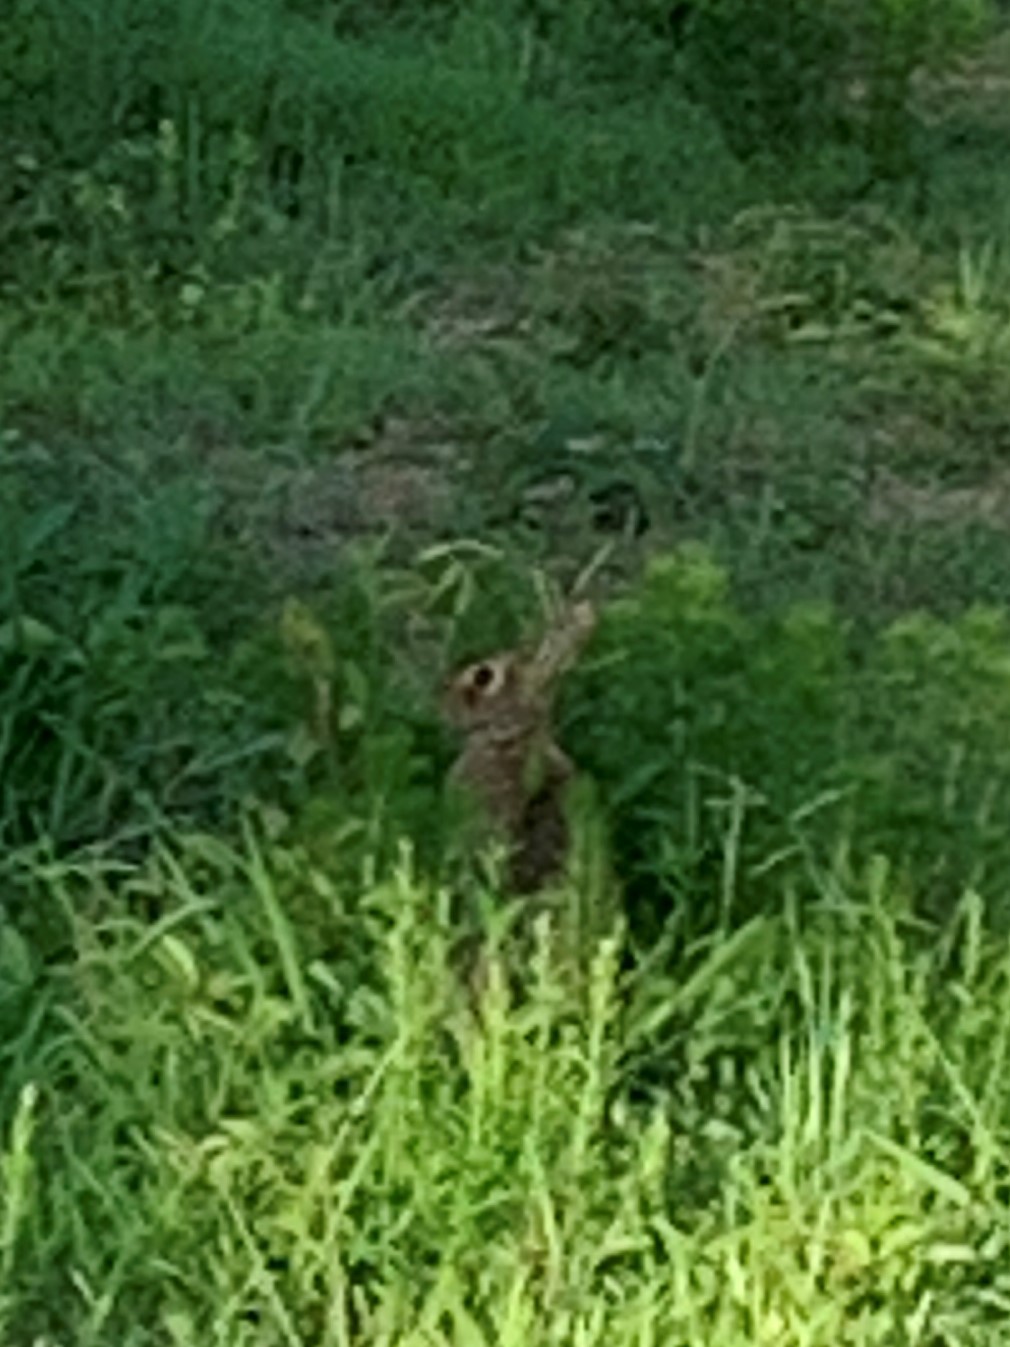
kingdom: Animalia
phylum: Chordata
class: Mammalia
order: Lagomorpha
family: Leporidae
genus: Sylvilagus
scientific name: Sylvilagus floridanus
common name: Eastern cottontail
